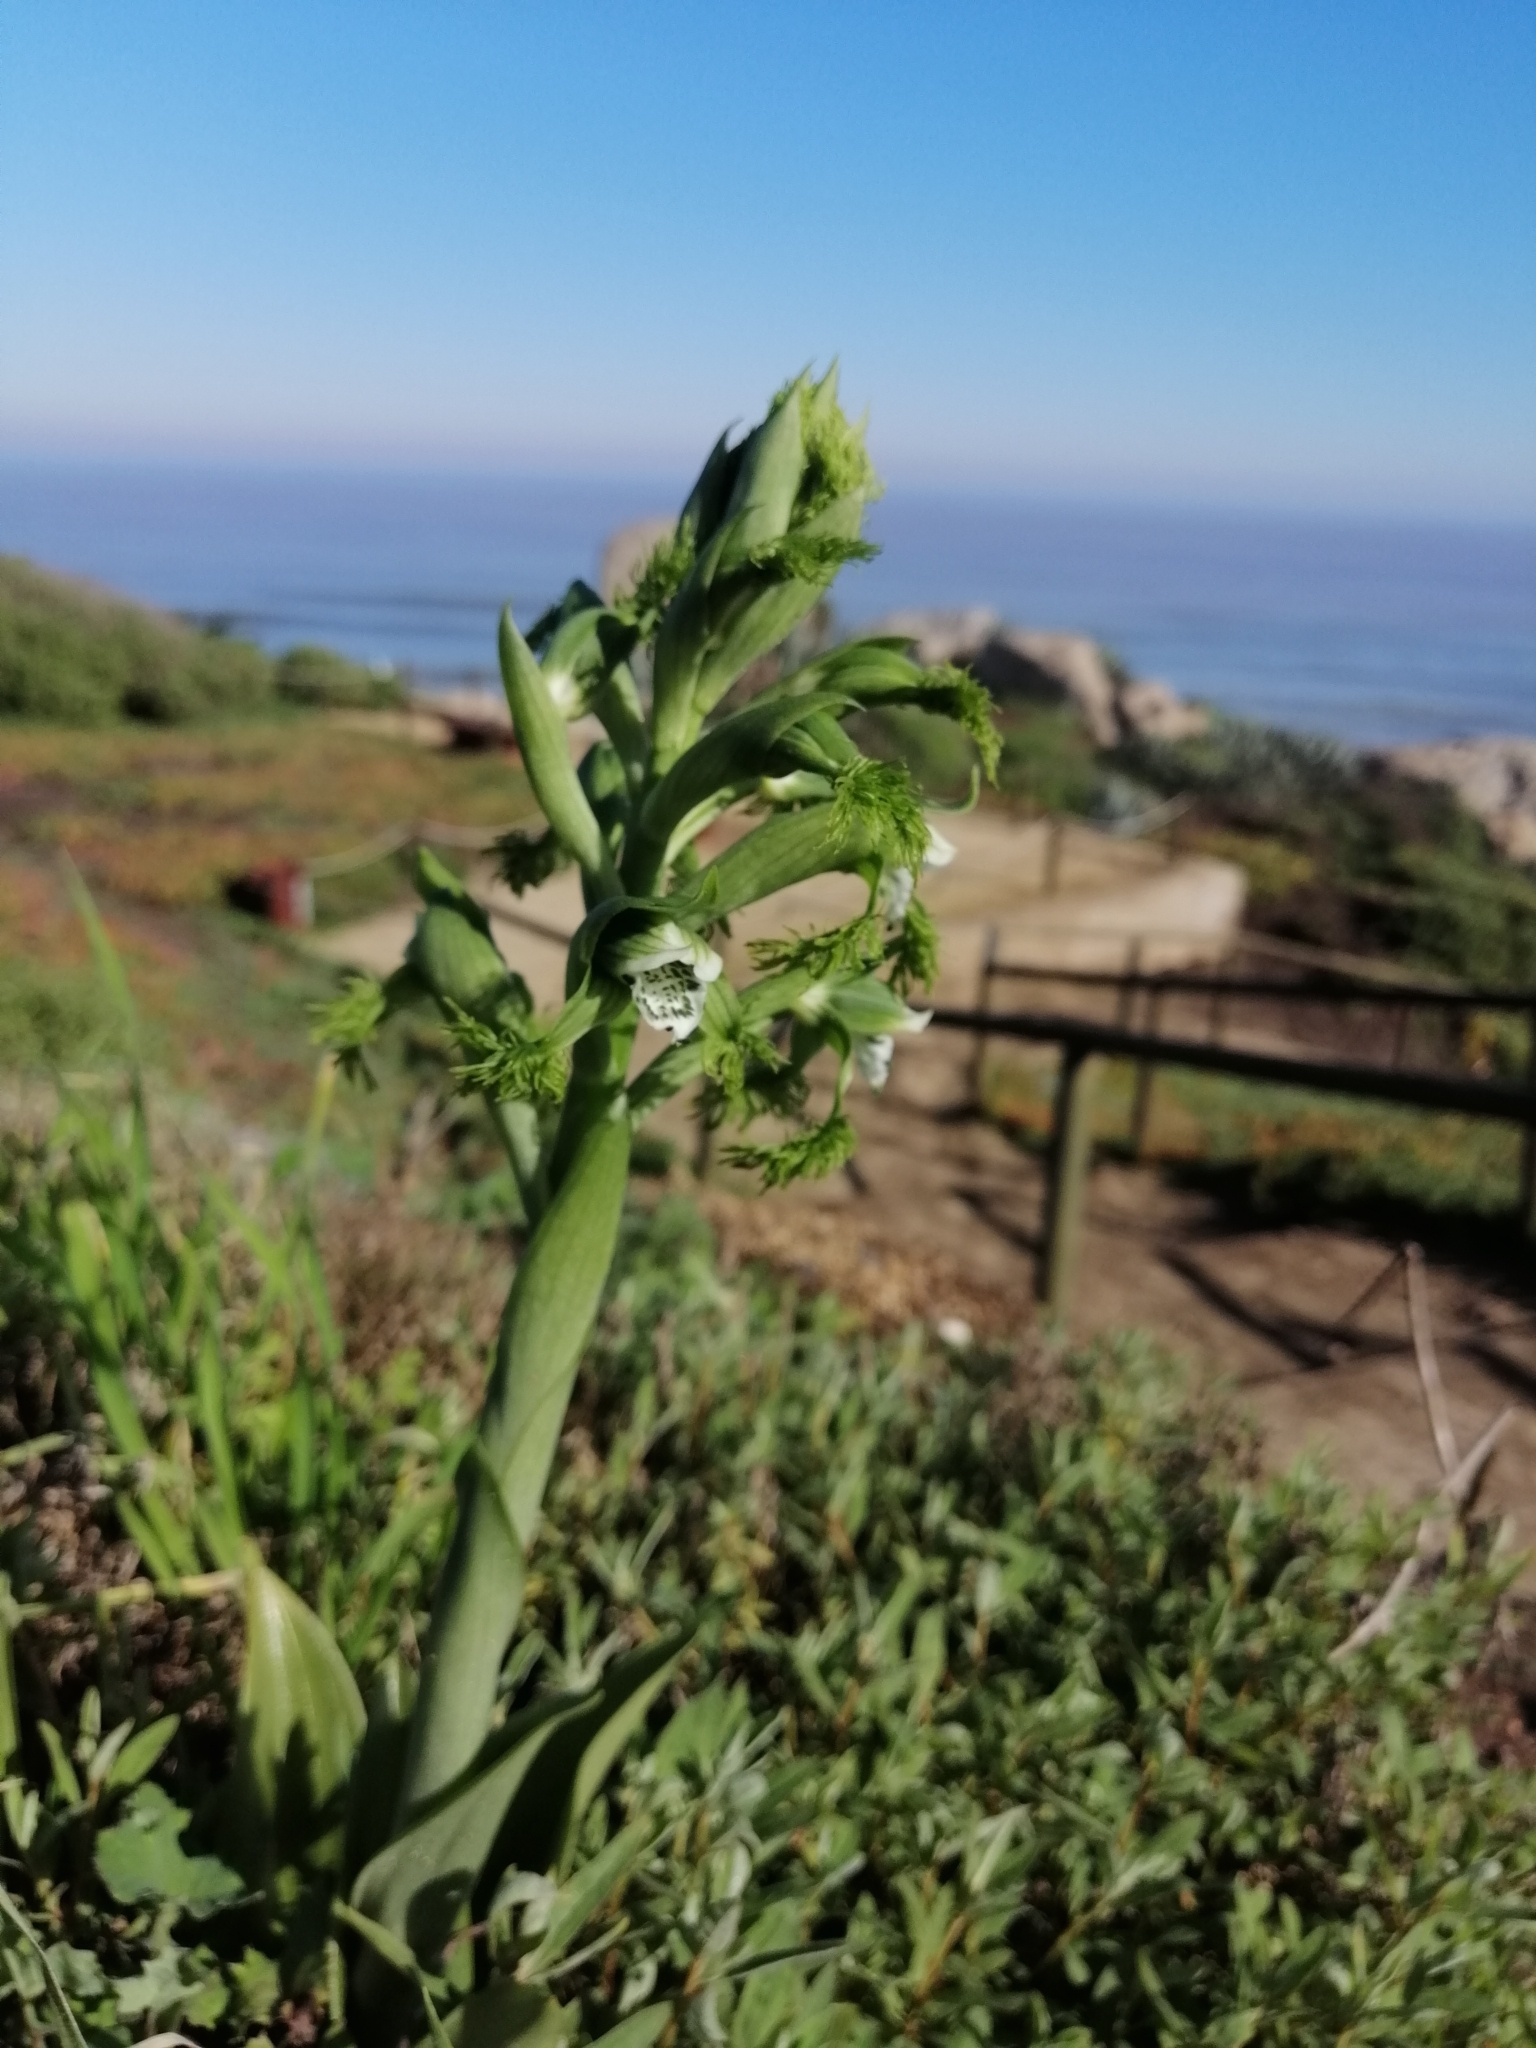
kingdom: Plantae
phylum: Tracheophyta
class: Liliopsida
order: Asparagales
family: Orchidaceae
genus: Bipinnula
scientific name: Bipinnula fimbriata
